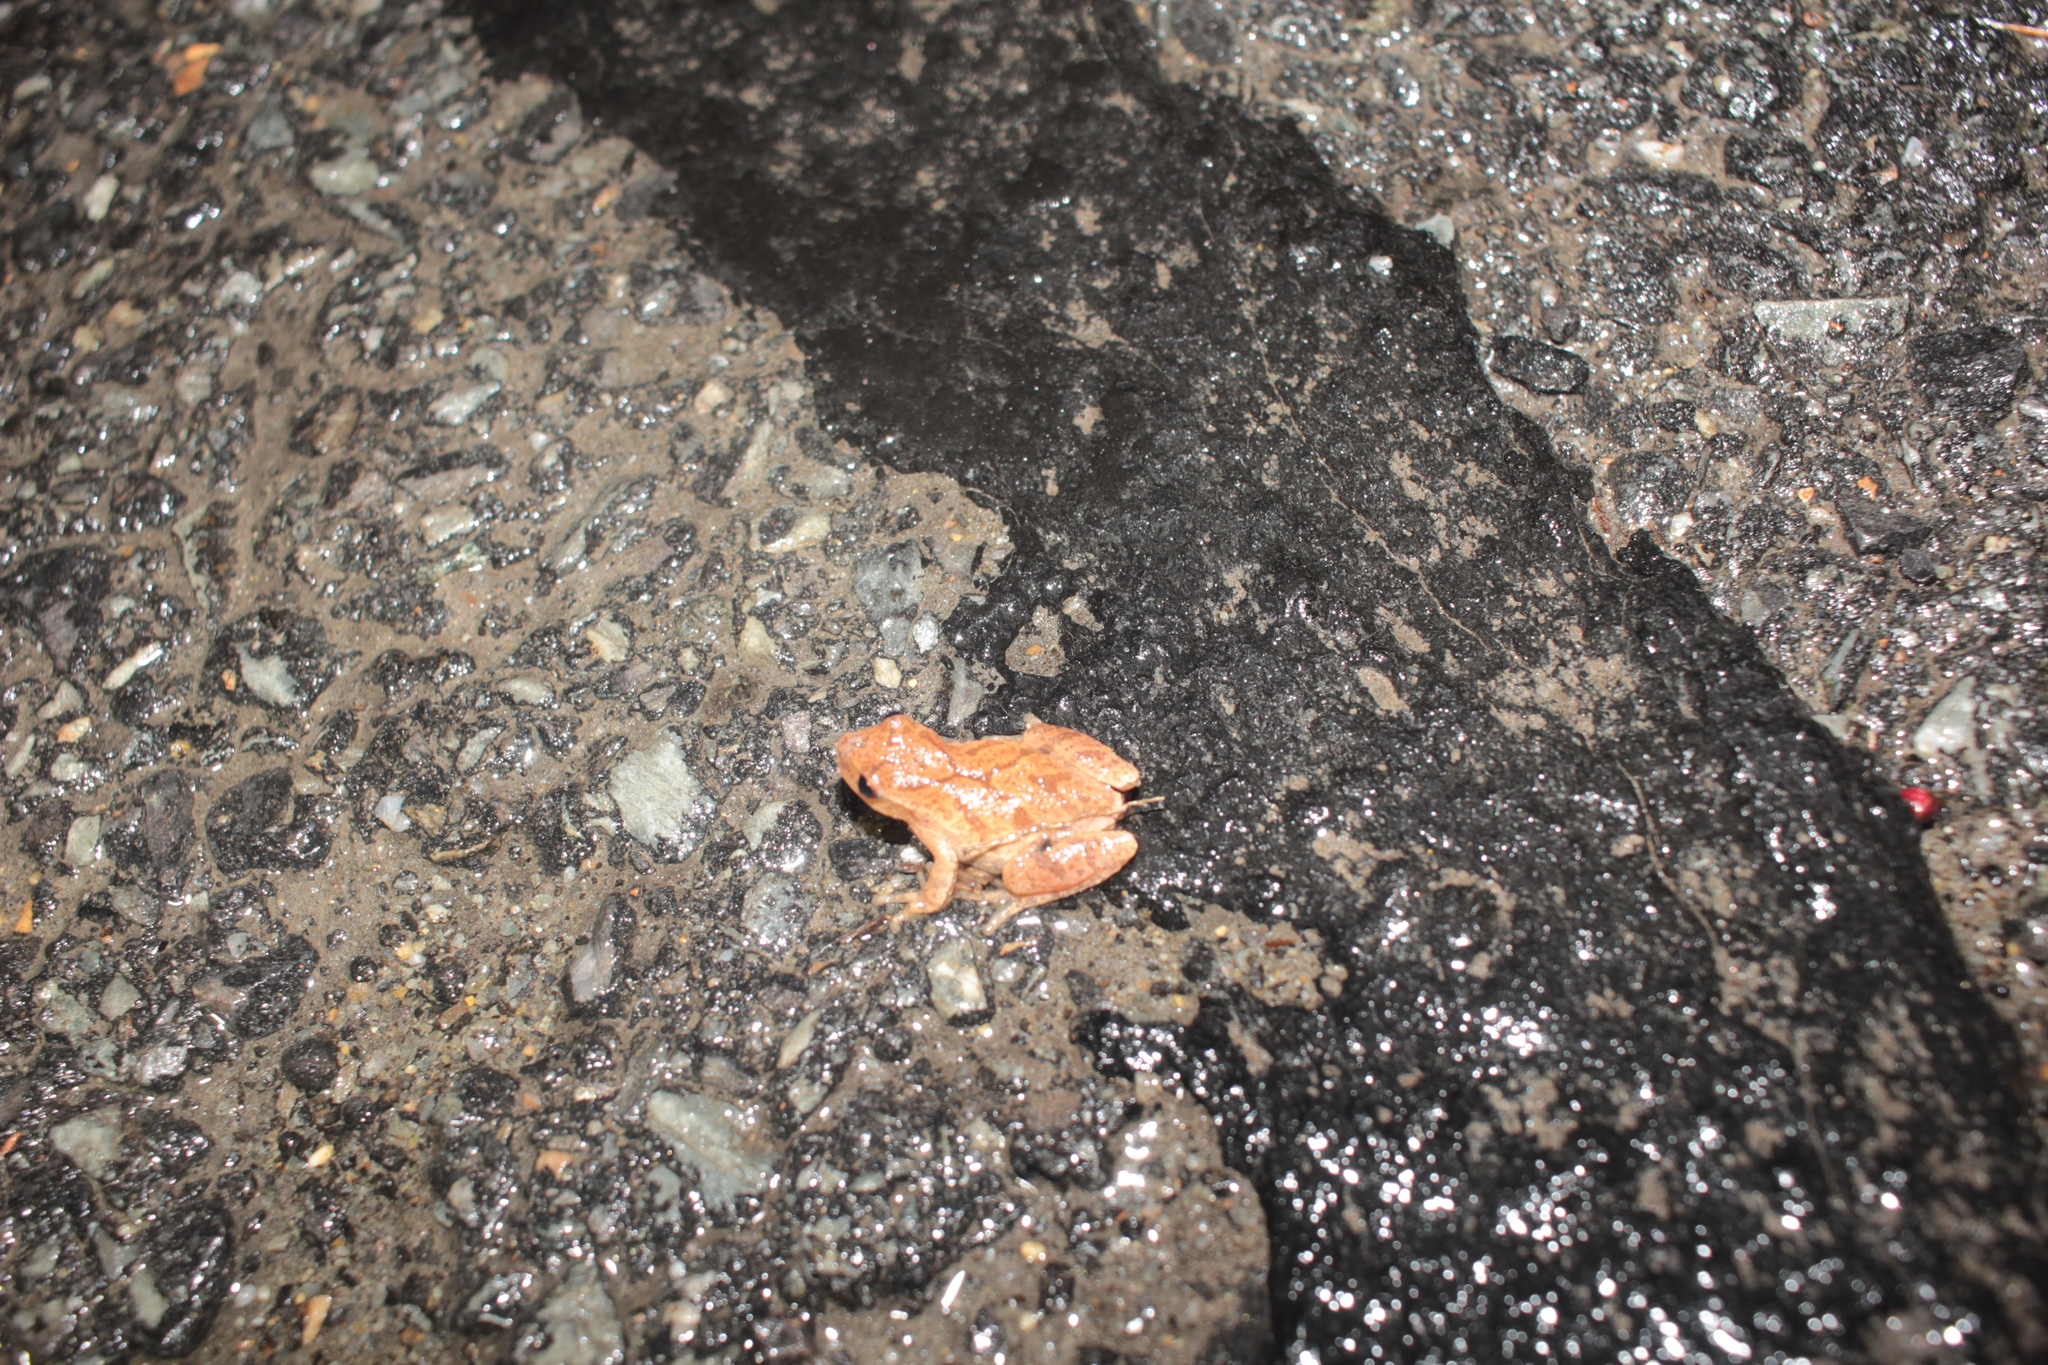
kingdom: Animalia
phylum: Chordata
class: Amphibia
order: Anura
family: Hylidae
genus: Pseudacris
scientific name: Pseudacris crucifer
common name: Spring peeper
